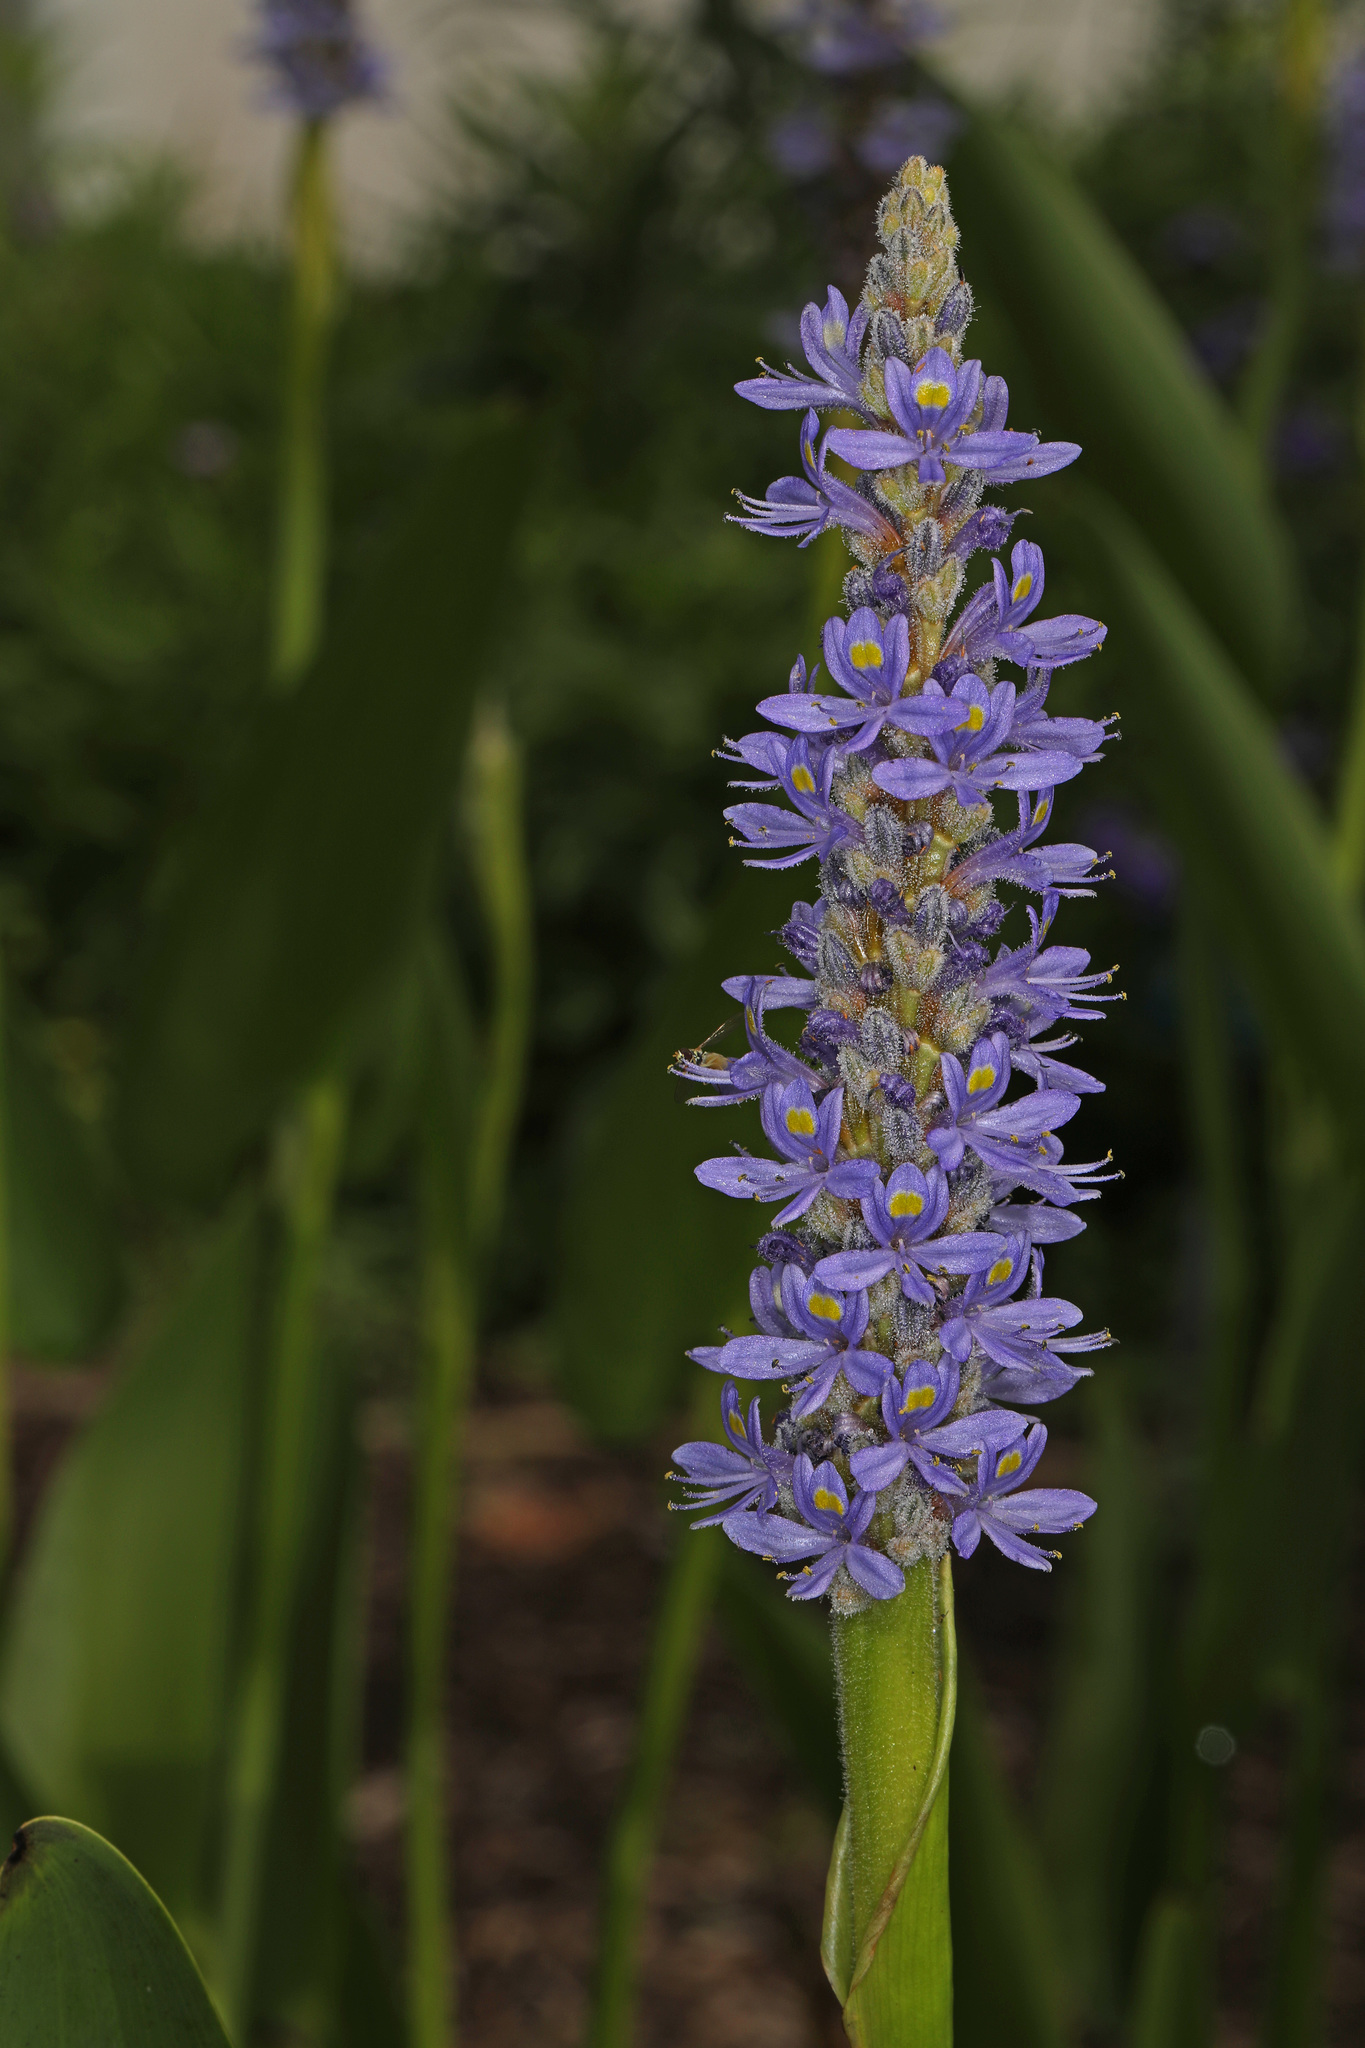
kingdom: Plantae
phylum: Tracheophyta
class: Liliopsida
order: Commelinales
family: Pontederiaceae
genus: Pontederia
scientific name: Pontederia cordata
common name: Pickerelweed
